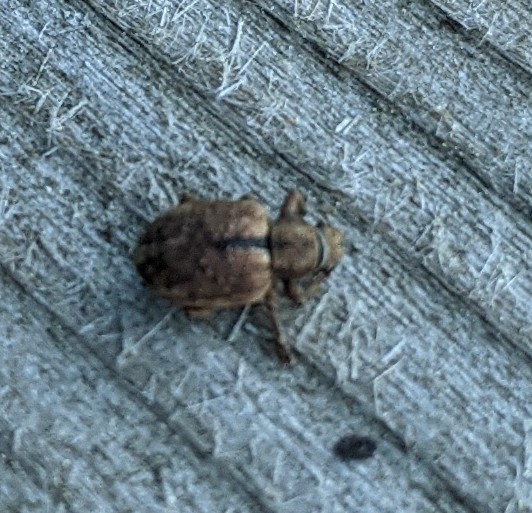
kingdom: Animalia
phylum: Arthropoda
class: Insecta
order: Coleoptera
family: Curculionidae
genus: Strophosoma
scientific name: Strophosoma melanogrammum
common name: Weevil
